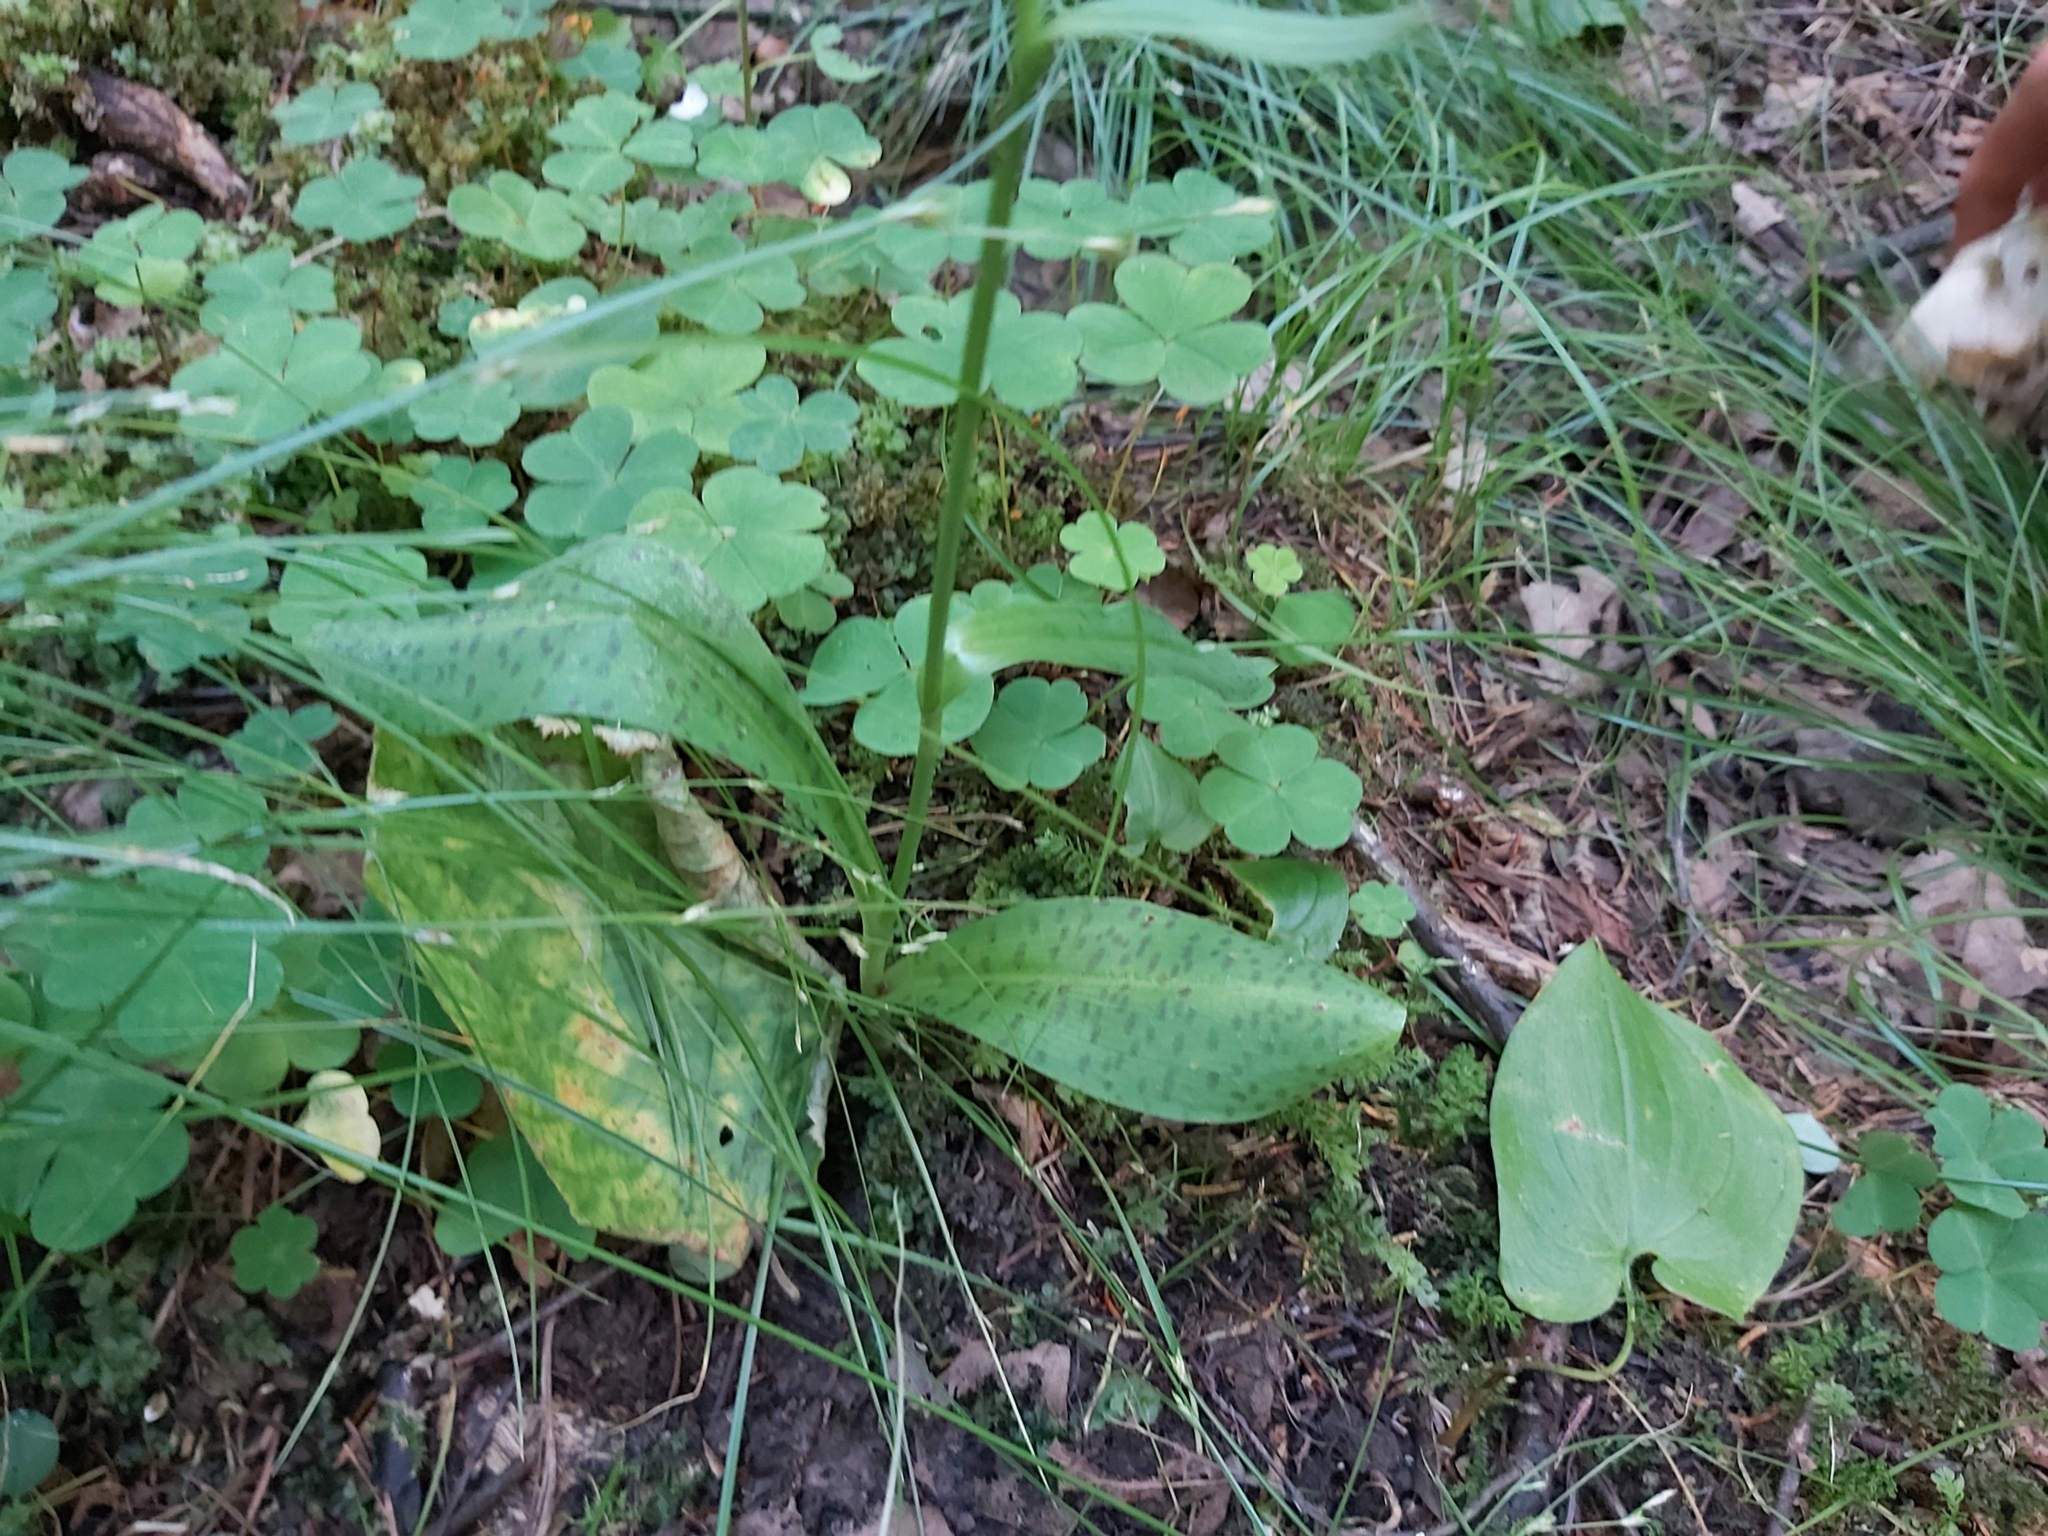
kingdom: Plantae
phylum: Tracheophyta
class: Liliopsida
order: Asparagales
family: Orchidaceae
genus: Dactylorhiza
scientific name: Dactylorhiza maculata
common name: Heath spotted-orchid
